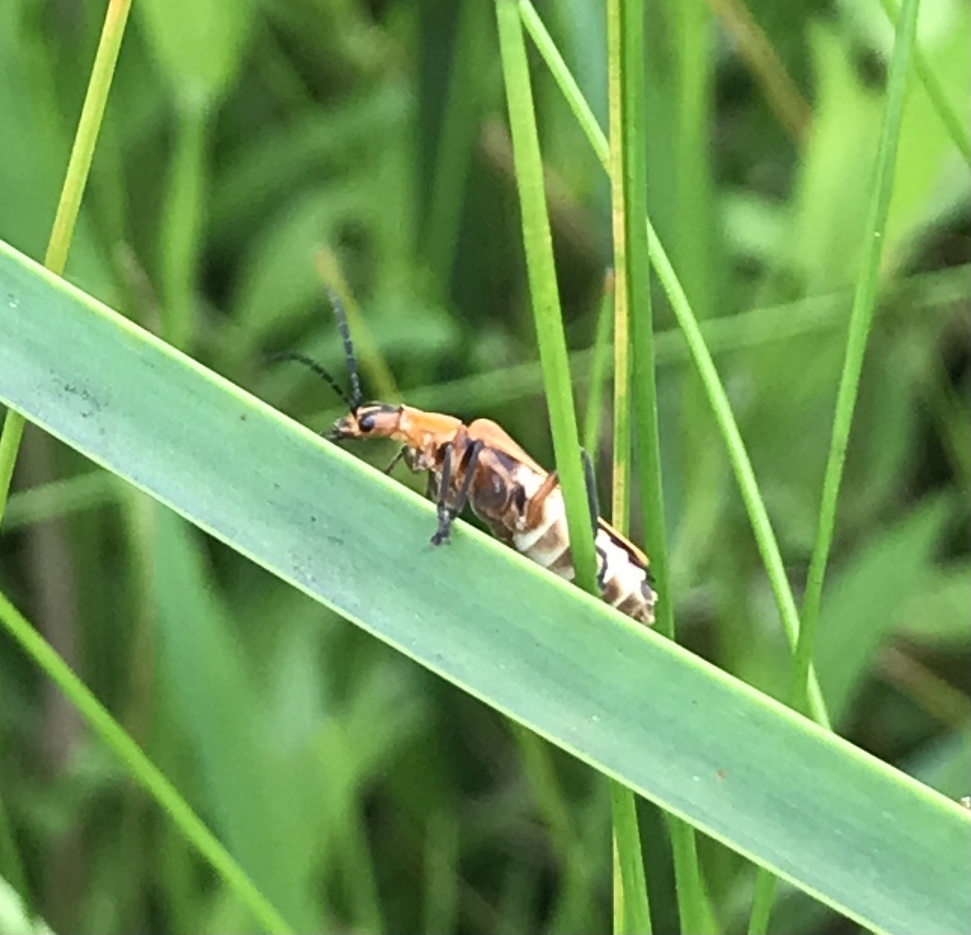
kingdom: Animalia
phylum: Arthropoda
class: Insecta
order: Coleoptera
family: Cantharidae
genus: Chauliognathus
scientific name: Chauliognathus marginatus
